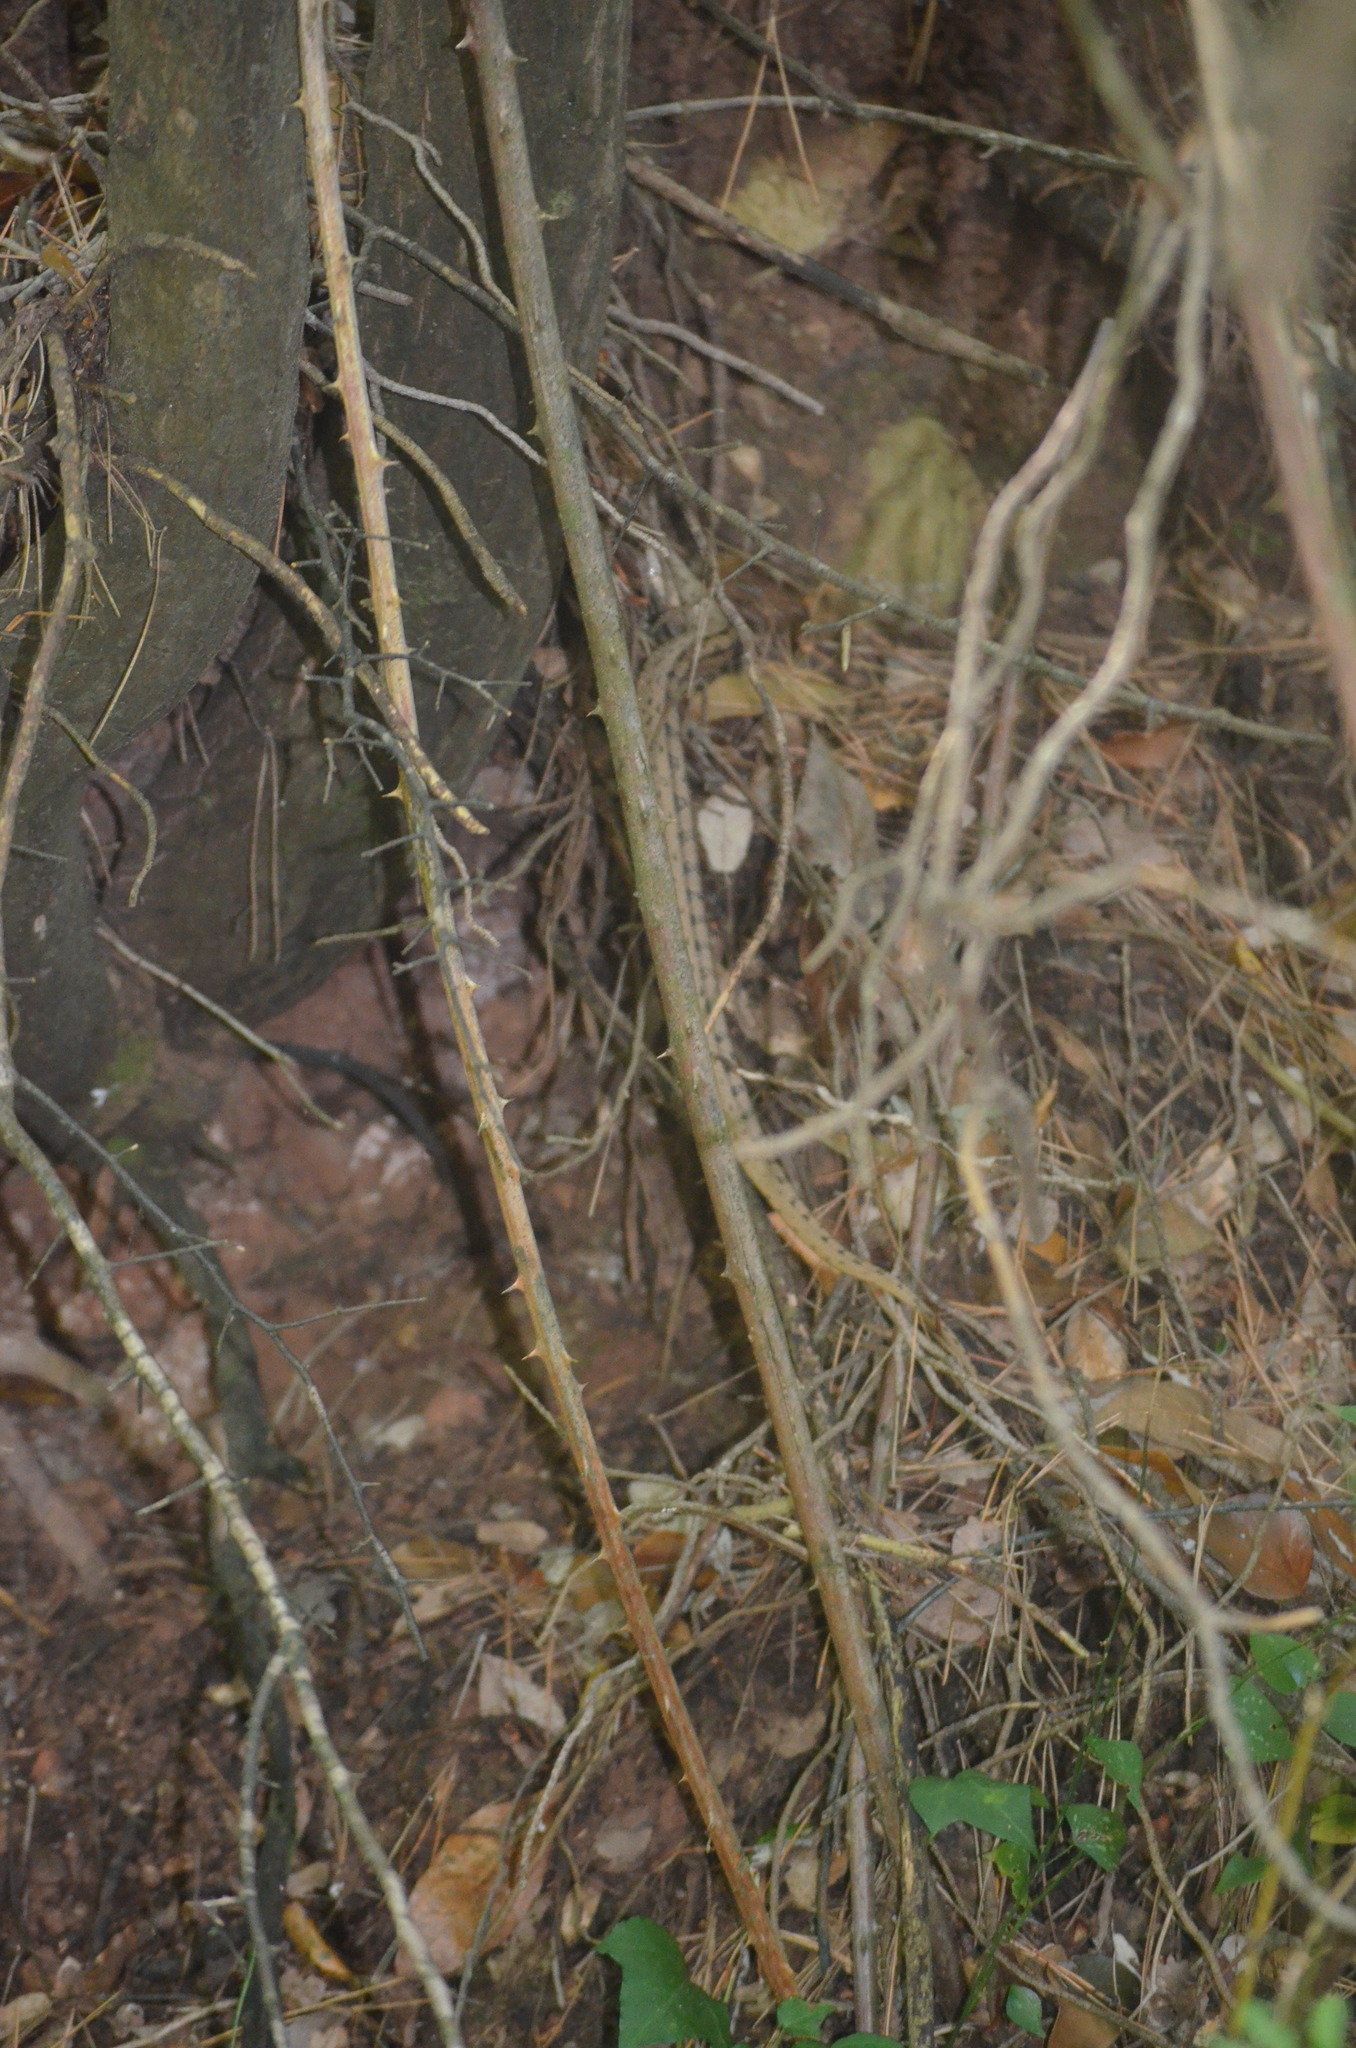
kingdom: Animalia
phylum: Chordata
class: Squamata
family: Colubridae
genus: Zamenis
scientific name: Zamenis scalaris
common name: Ladder snakes
